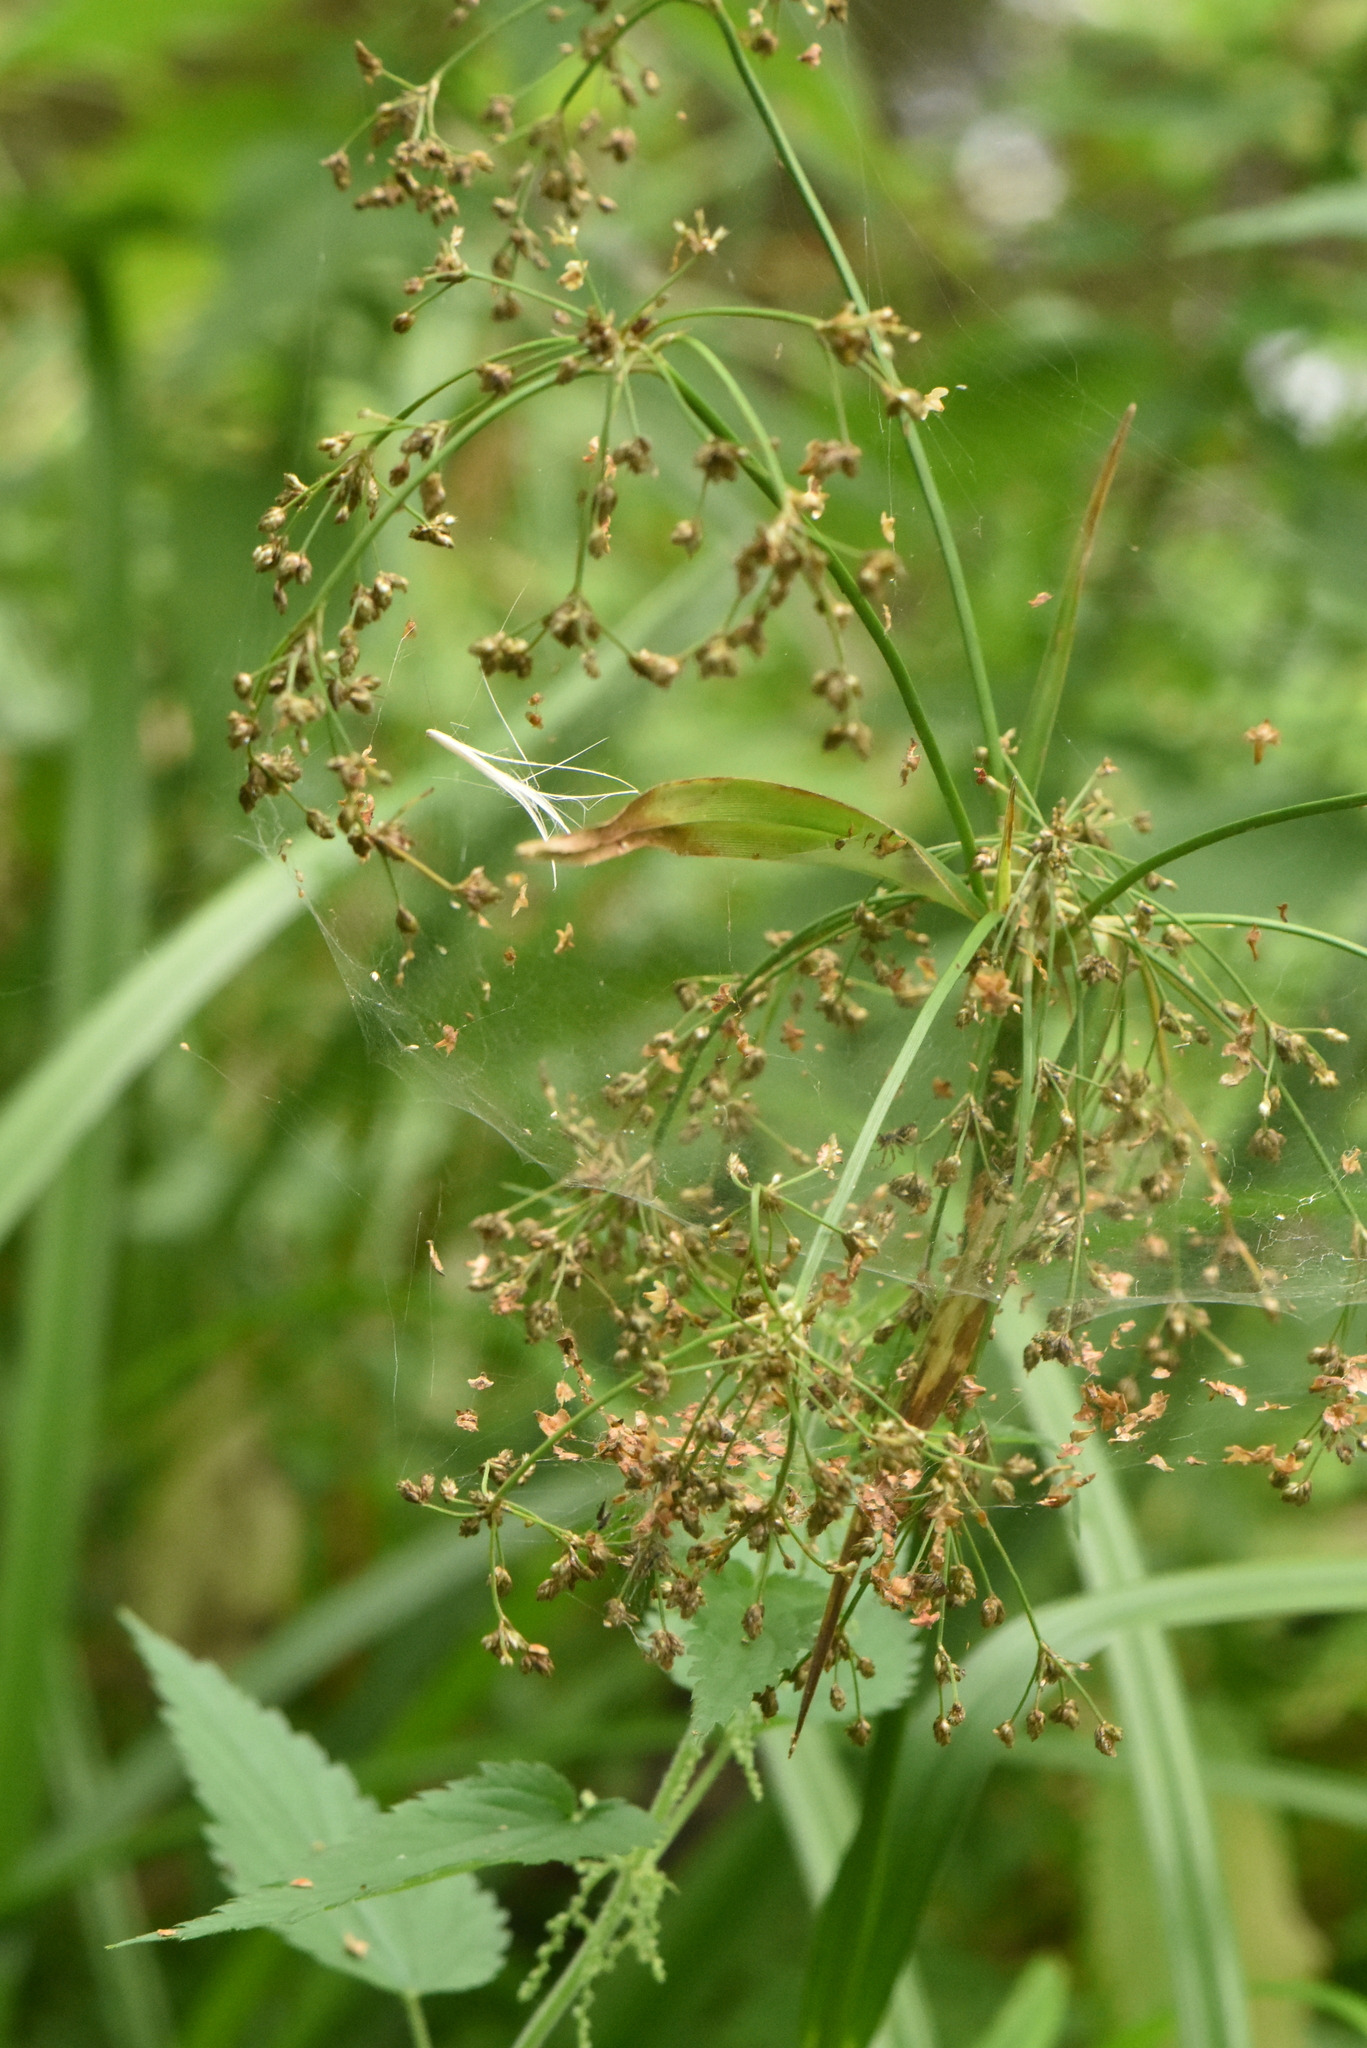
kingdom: Plantae
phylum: Tracheophyta
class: Liliopsida
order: Poales
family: Cyperaceae
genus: Scirpus
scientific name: Scirpus sylvaticus
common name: Wood club-rush
